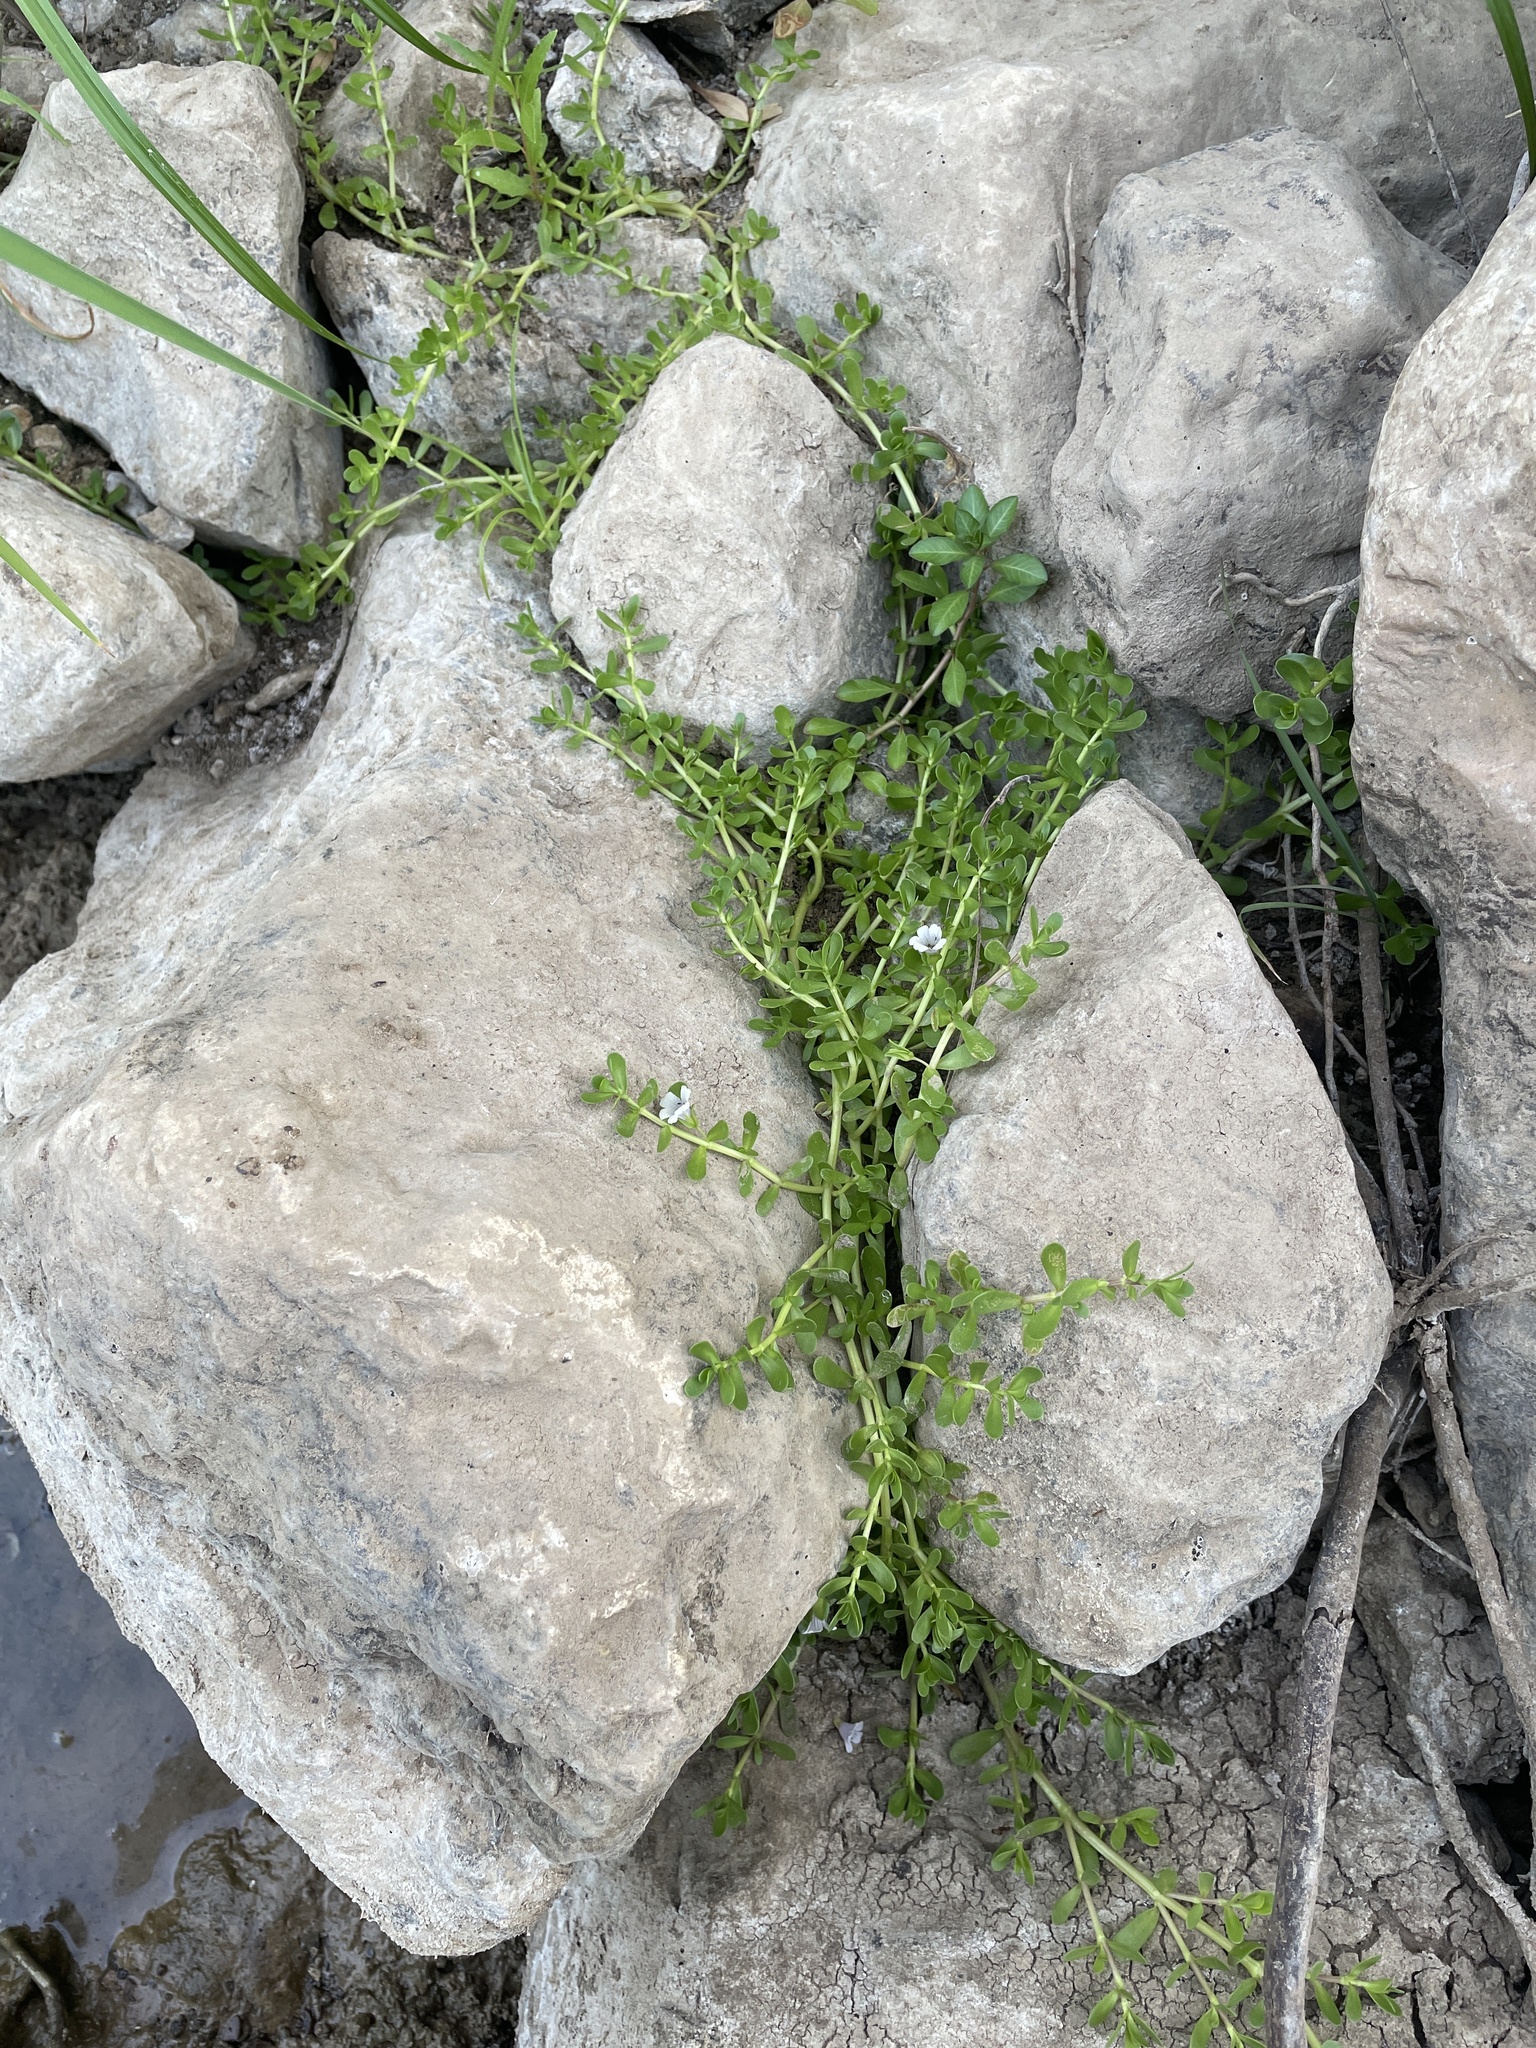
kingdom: Plantae
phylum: Tracheophyta
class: Magnoliopsida
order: Lamiales
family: Plantaginaceae
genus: Bacopa
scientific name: Bacopa monnieri
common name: Indian-pennywort
